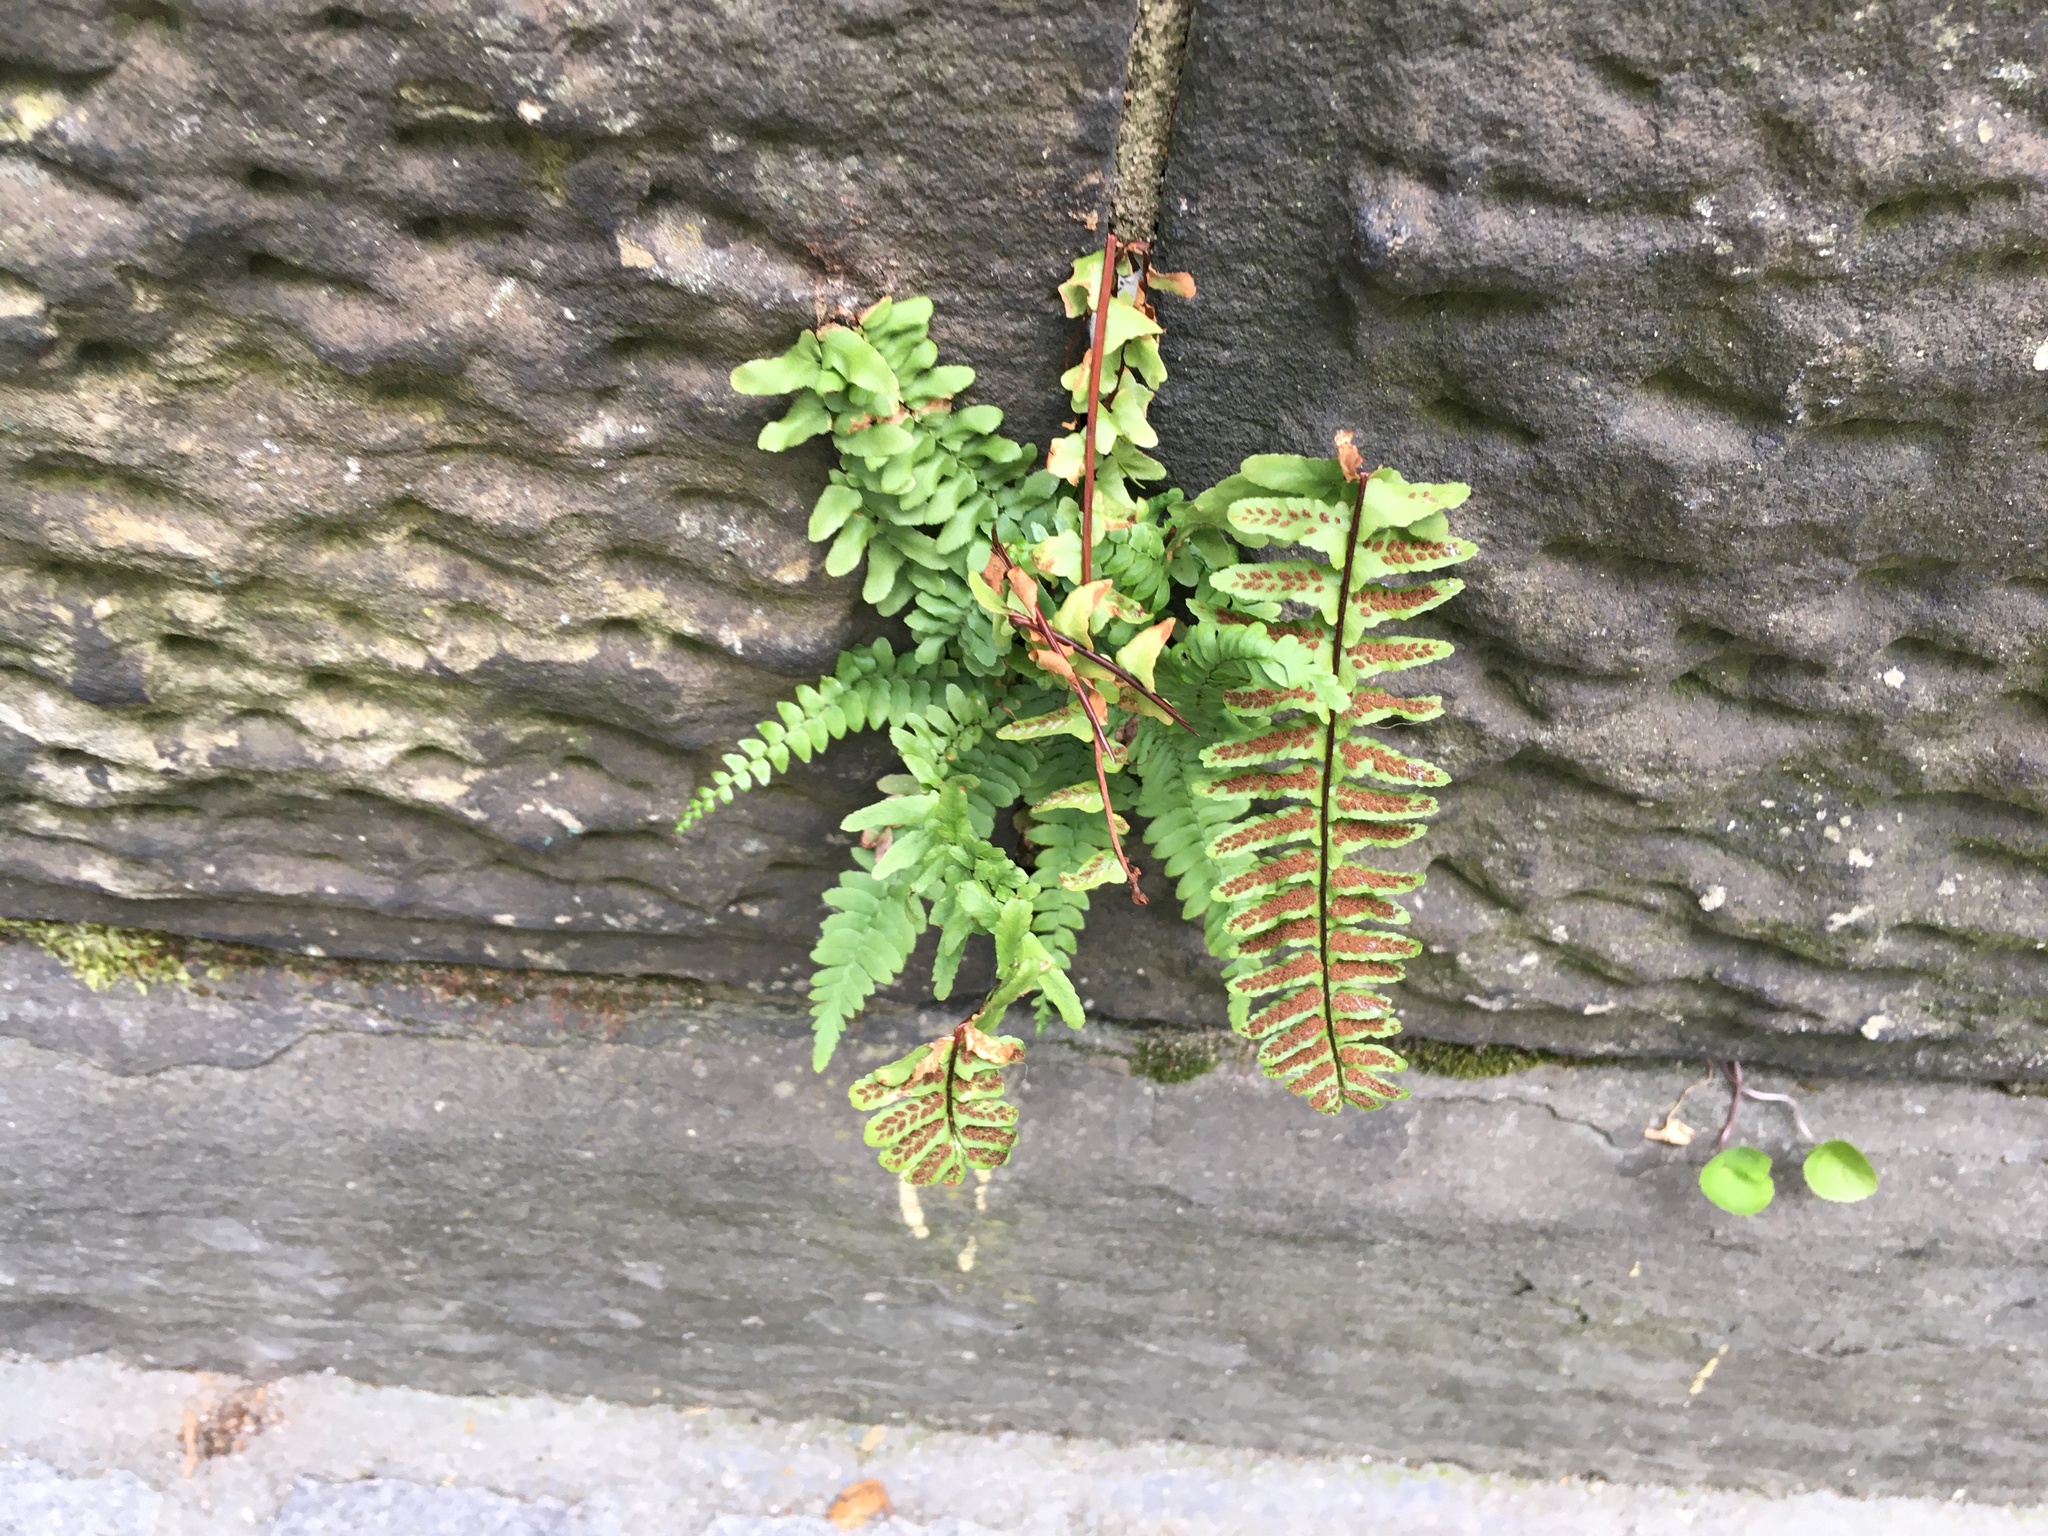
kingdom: Plantae
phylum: Tracheophyta
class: Polypodiopsida
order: Polypodiales
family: Aspleniaceae
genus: Asplenium
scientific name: Asplenium platyneuron
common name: Ebony spleenwort
